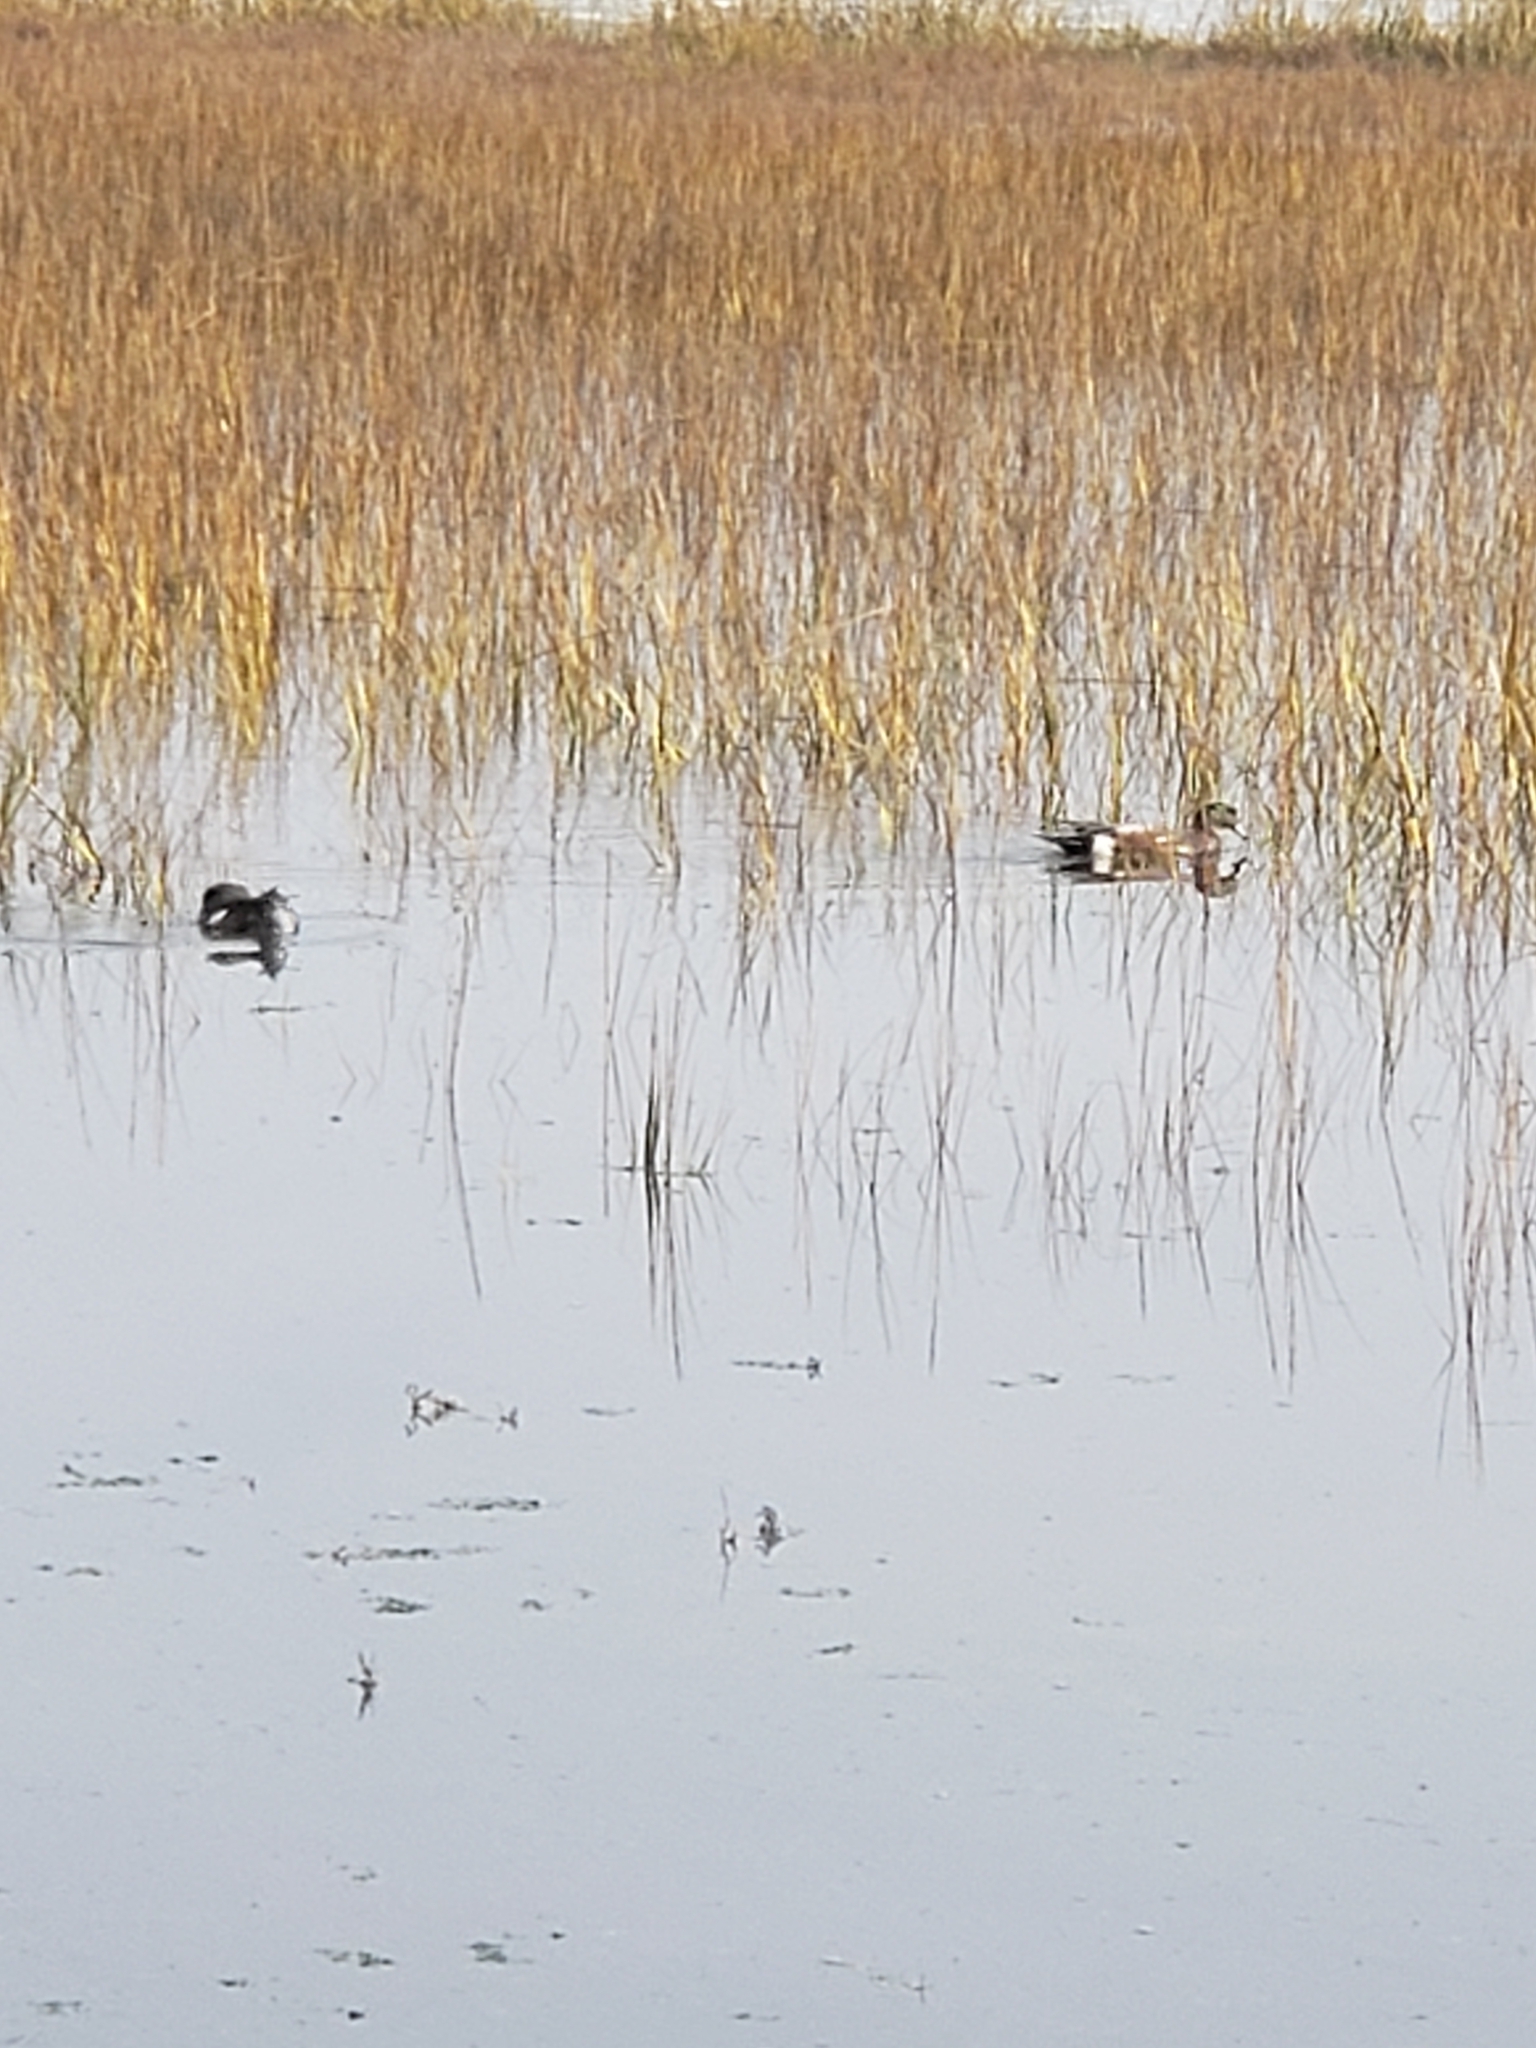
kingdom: Animalia
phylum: Chordata
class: Aves
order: Anseriformes
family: Anatidae
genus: Mareca
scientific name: Mareca americana
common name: American wigeon
